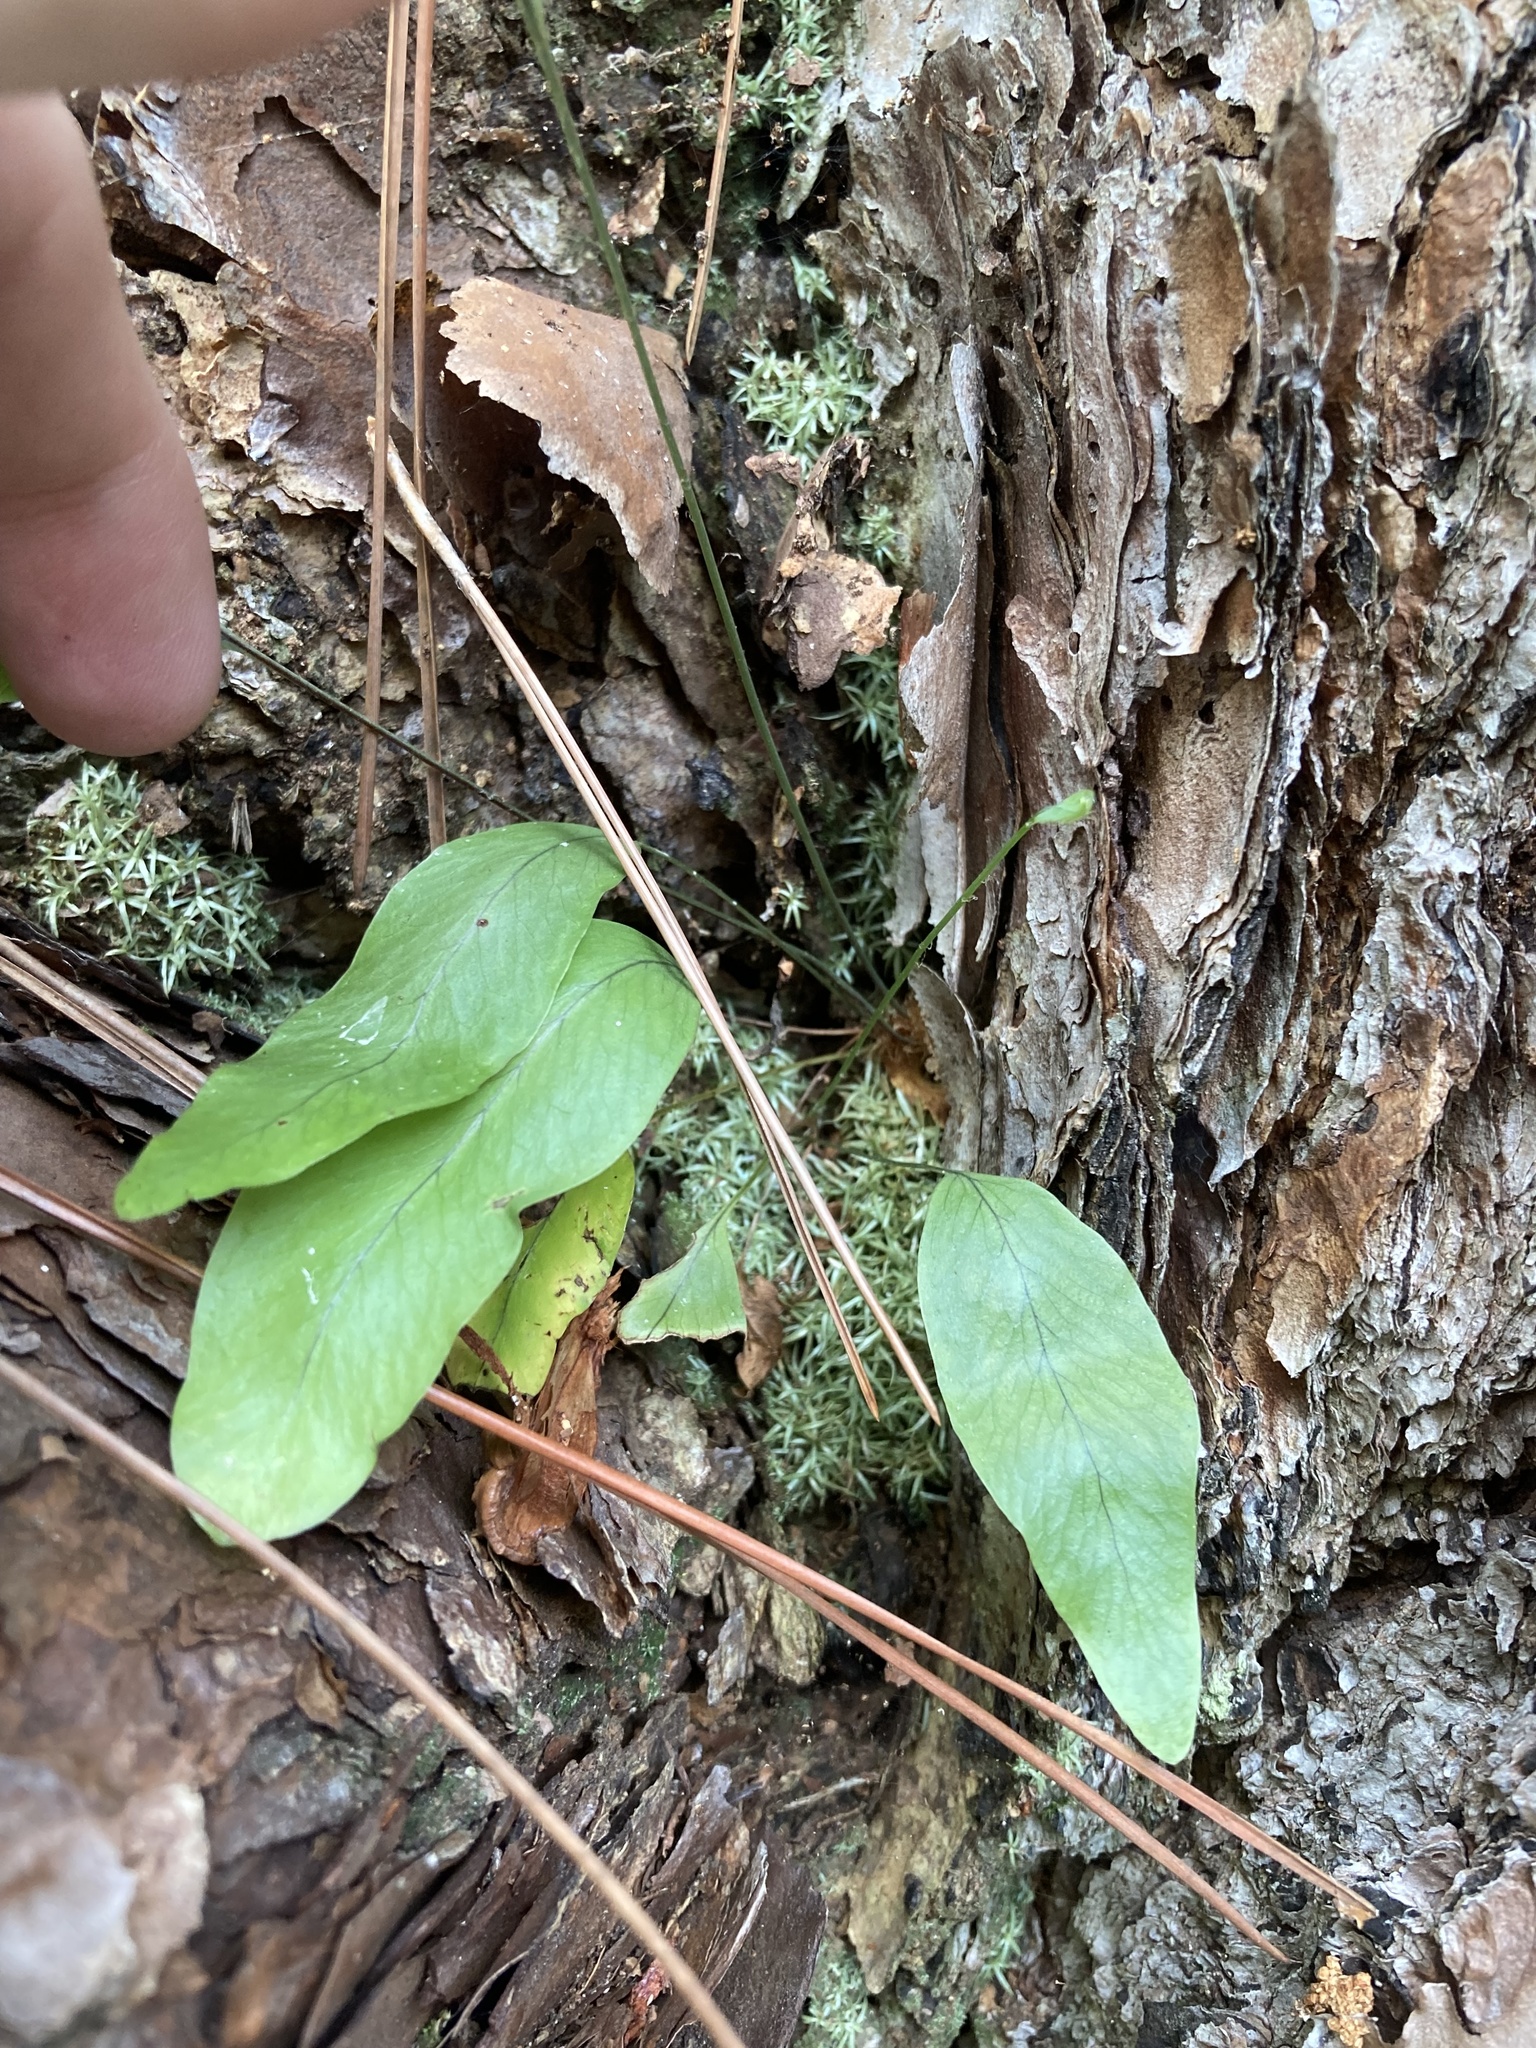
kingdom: Plantae
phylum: Tracheophyta
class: Polypodiopsida
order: Polypodiales
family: Polypodiaceae
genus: Phlebodium
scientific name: Phlebodium aureum
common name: Gold-foot fern
